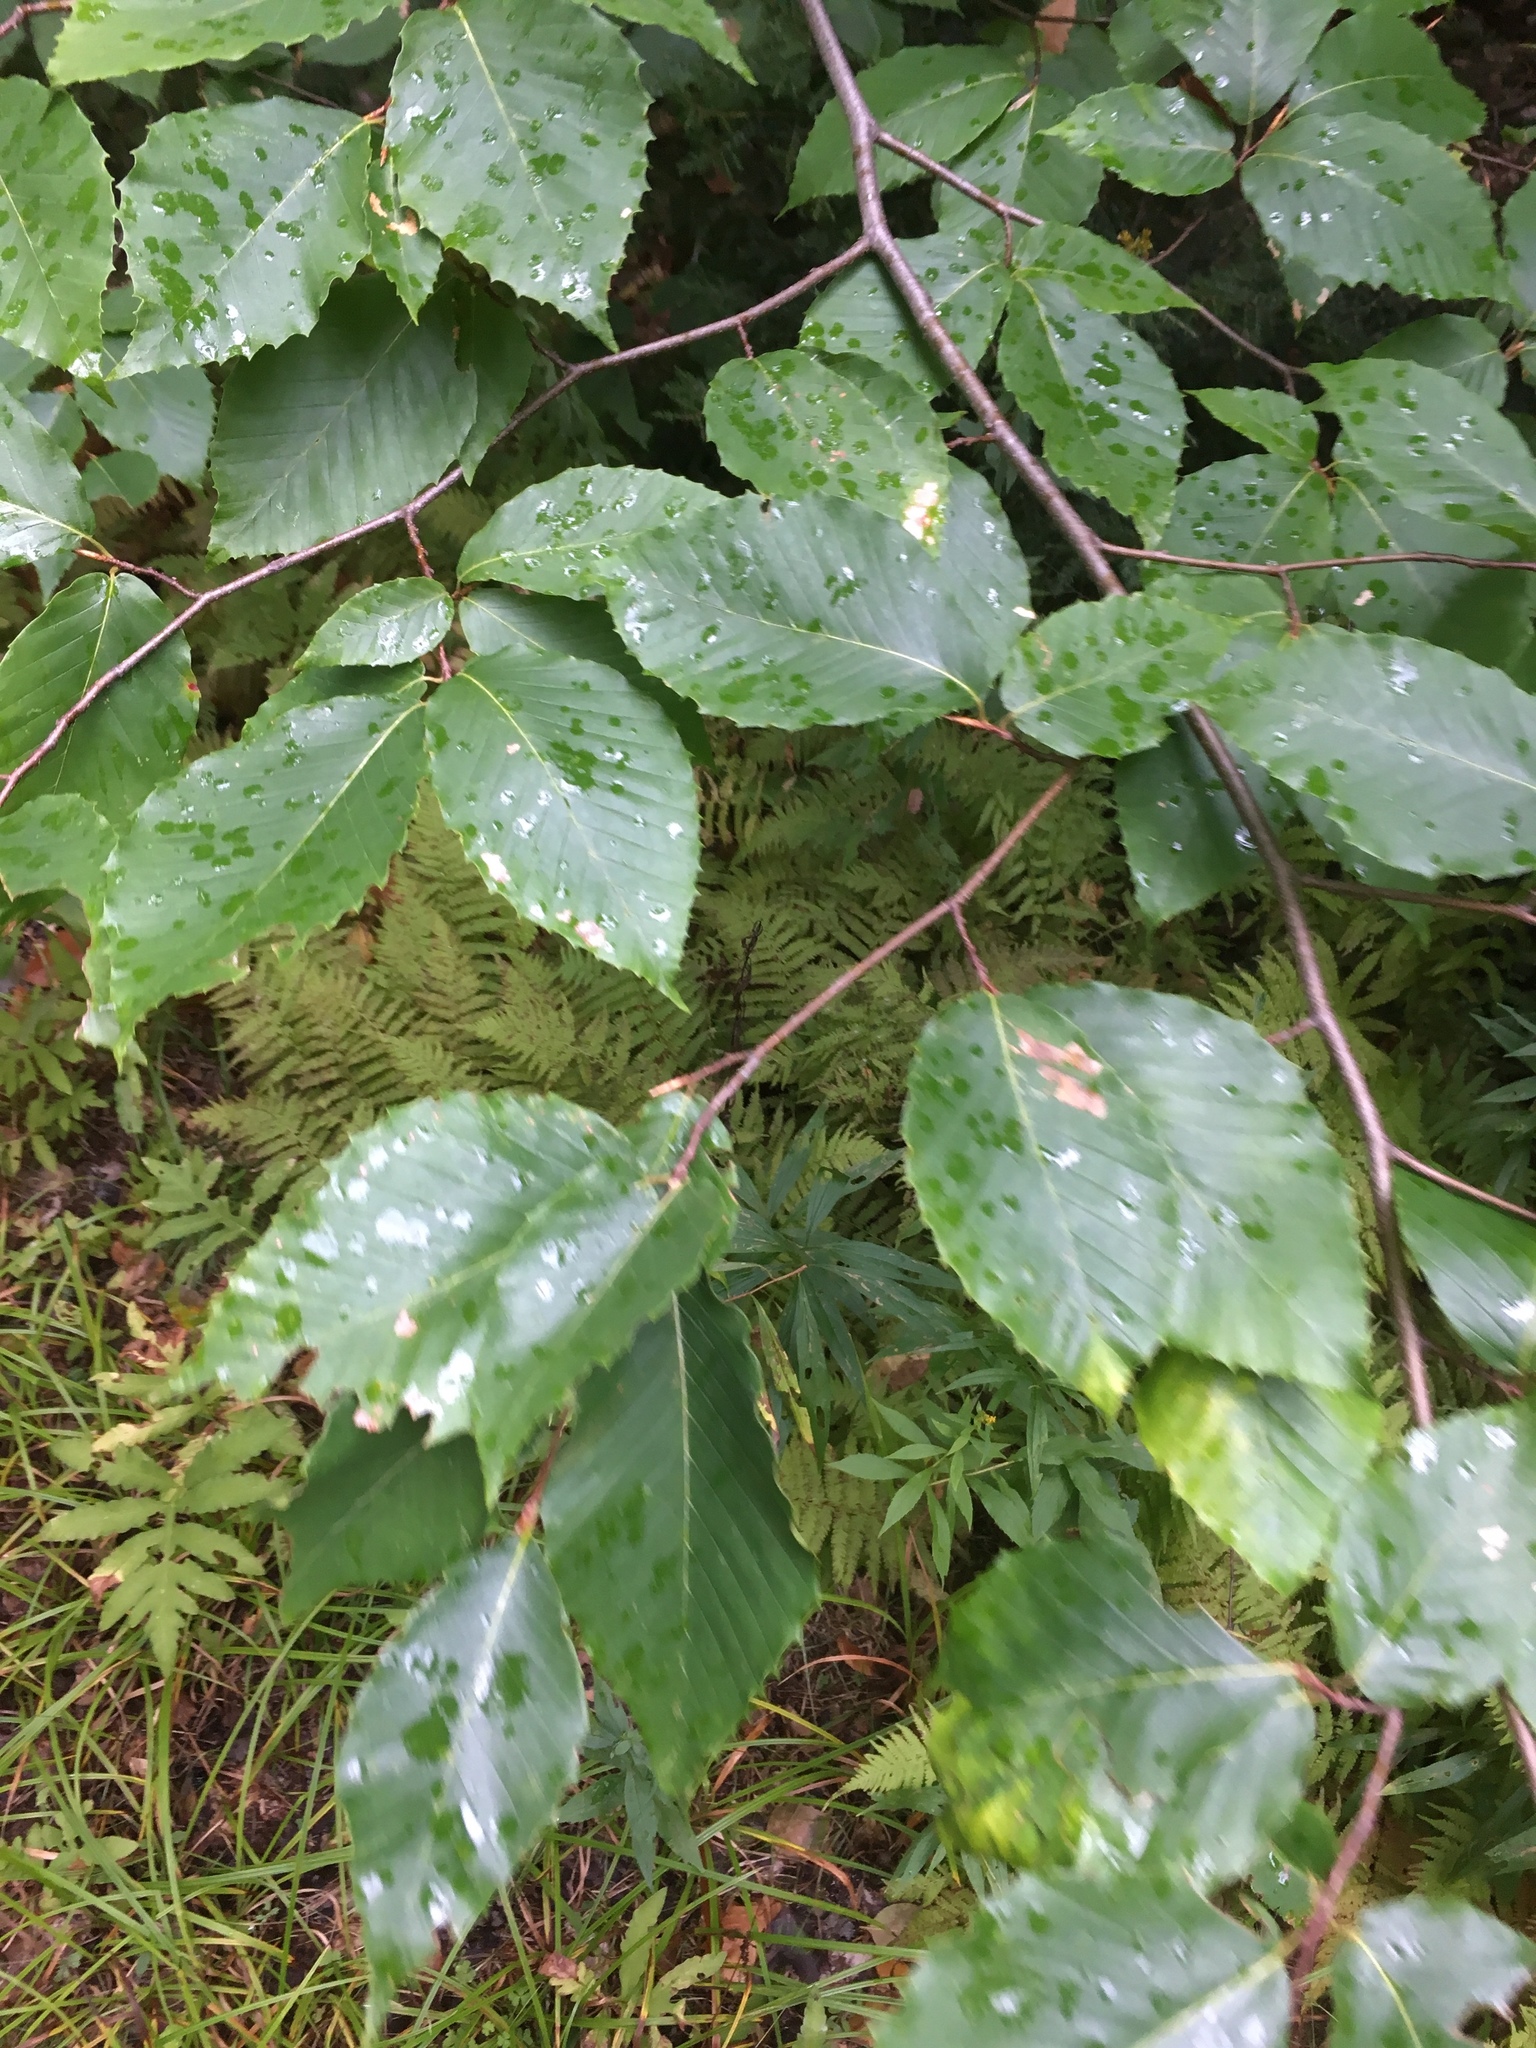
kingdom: Plantae
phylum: Tracheophyta
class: Magnoliopsida
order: Fagales
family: Fagaceae
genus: Fagus
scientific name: Fagus grandifolia
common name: American beech
